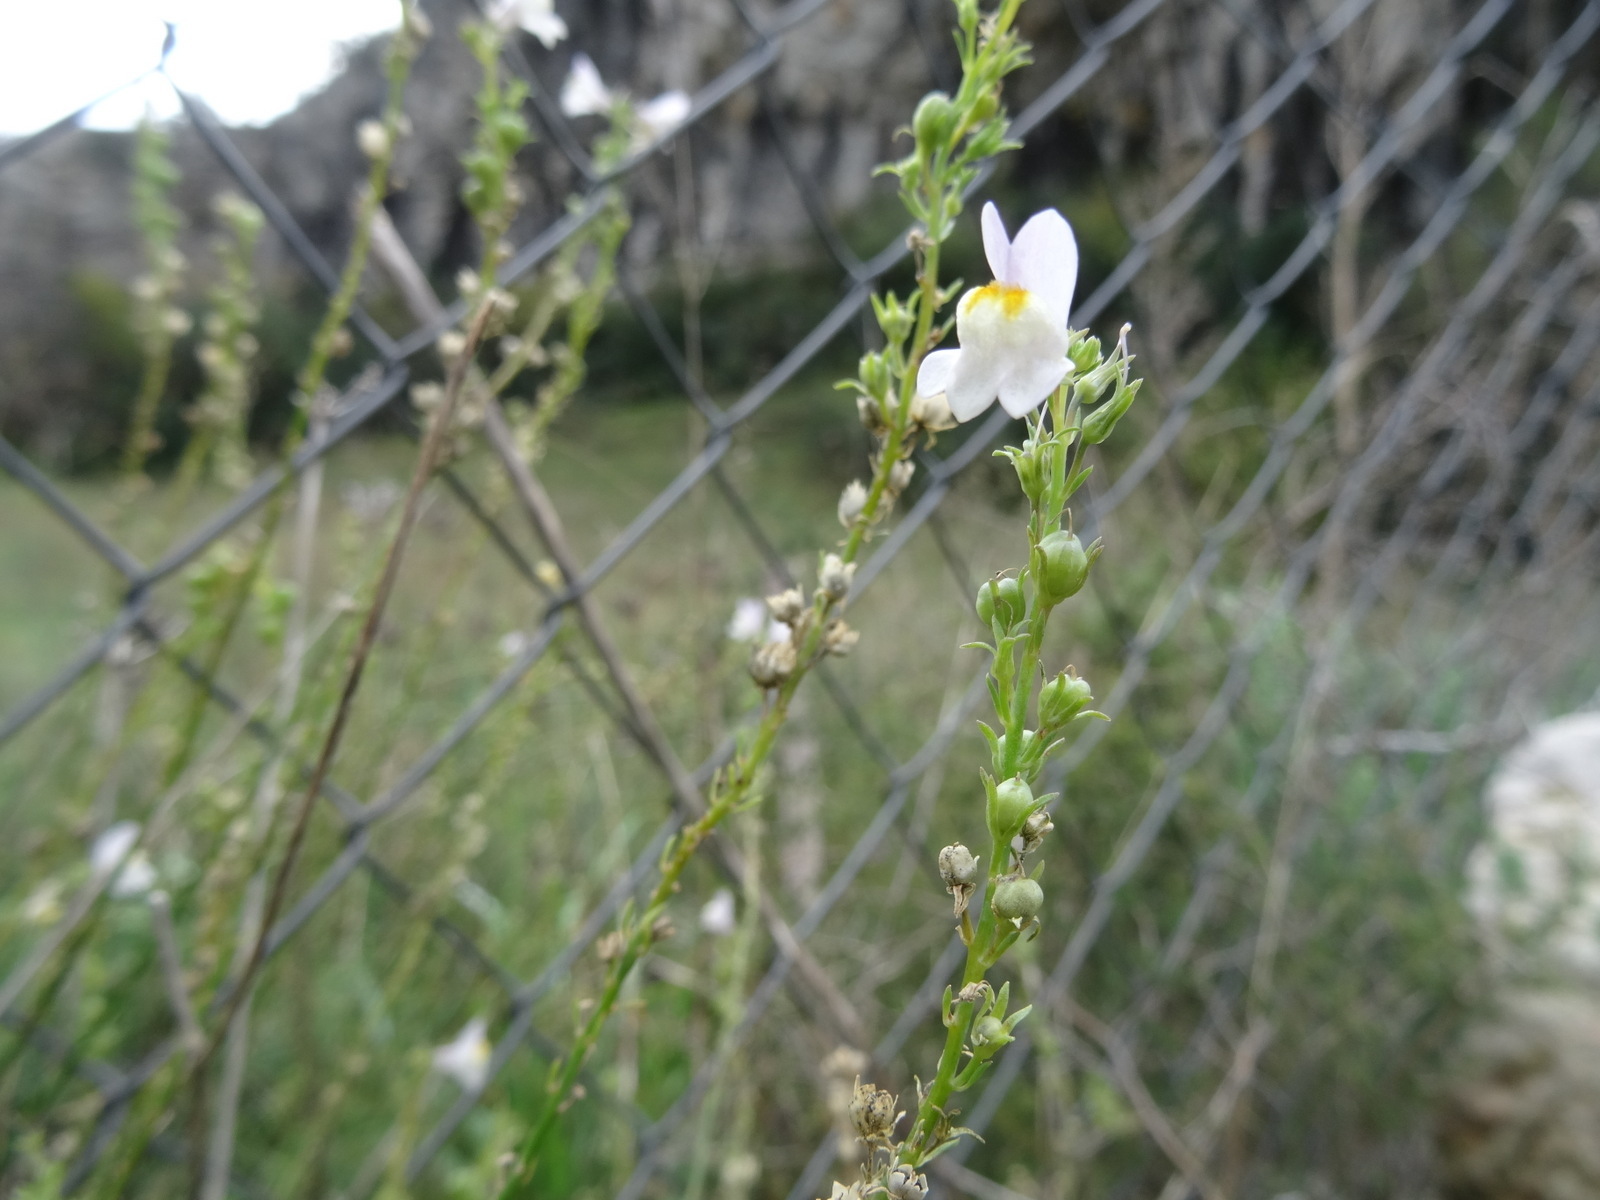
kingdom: Plantae
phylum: Tracheophyta
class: Magnoliopsida
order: Lamiales
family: Plantaginaceae
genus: Linaria
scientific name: Linaria repens
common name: Pale toadflax
